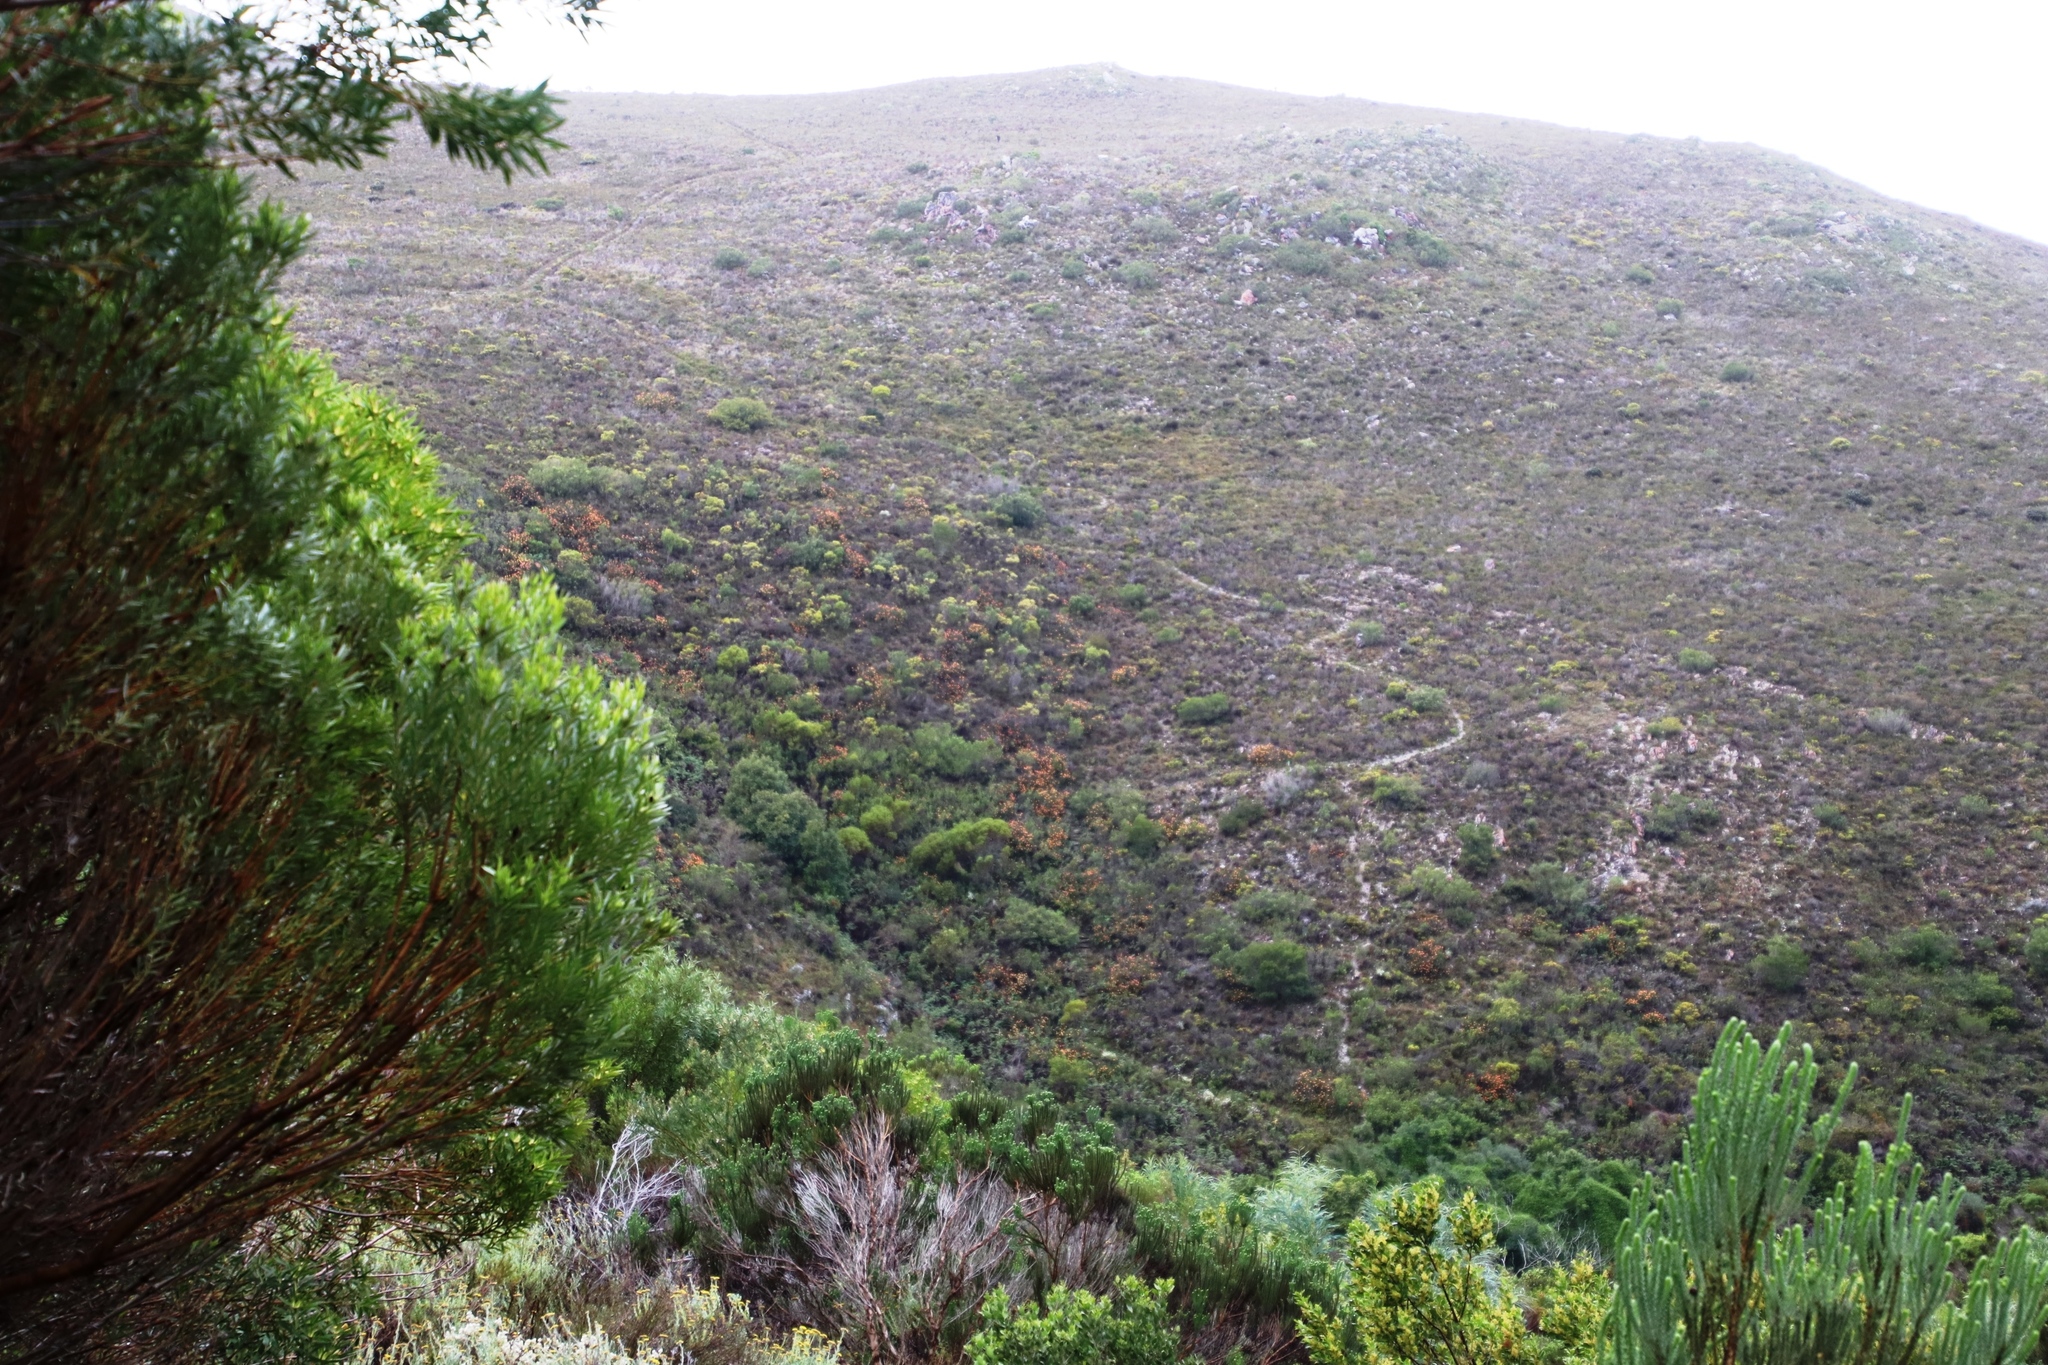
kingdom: Plantae
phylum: Tracheophyta
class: Magnoliopsida
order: Proteales
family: Proteaceae
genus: Leucospermum
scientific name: Leucospermum patersonii
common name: False tree pincushion
